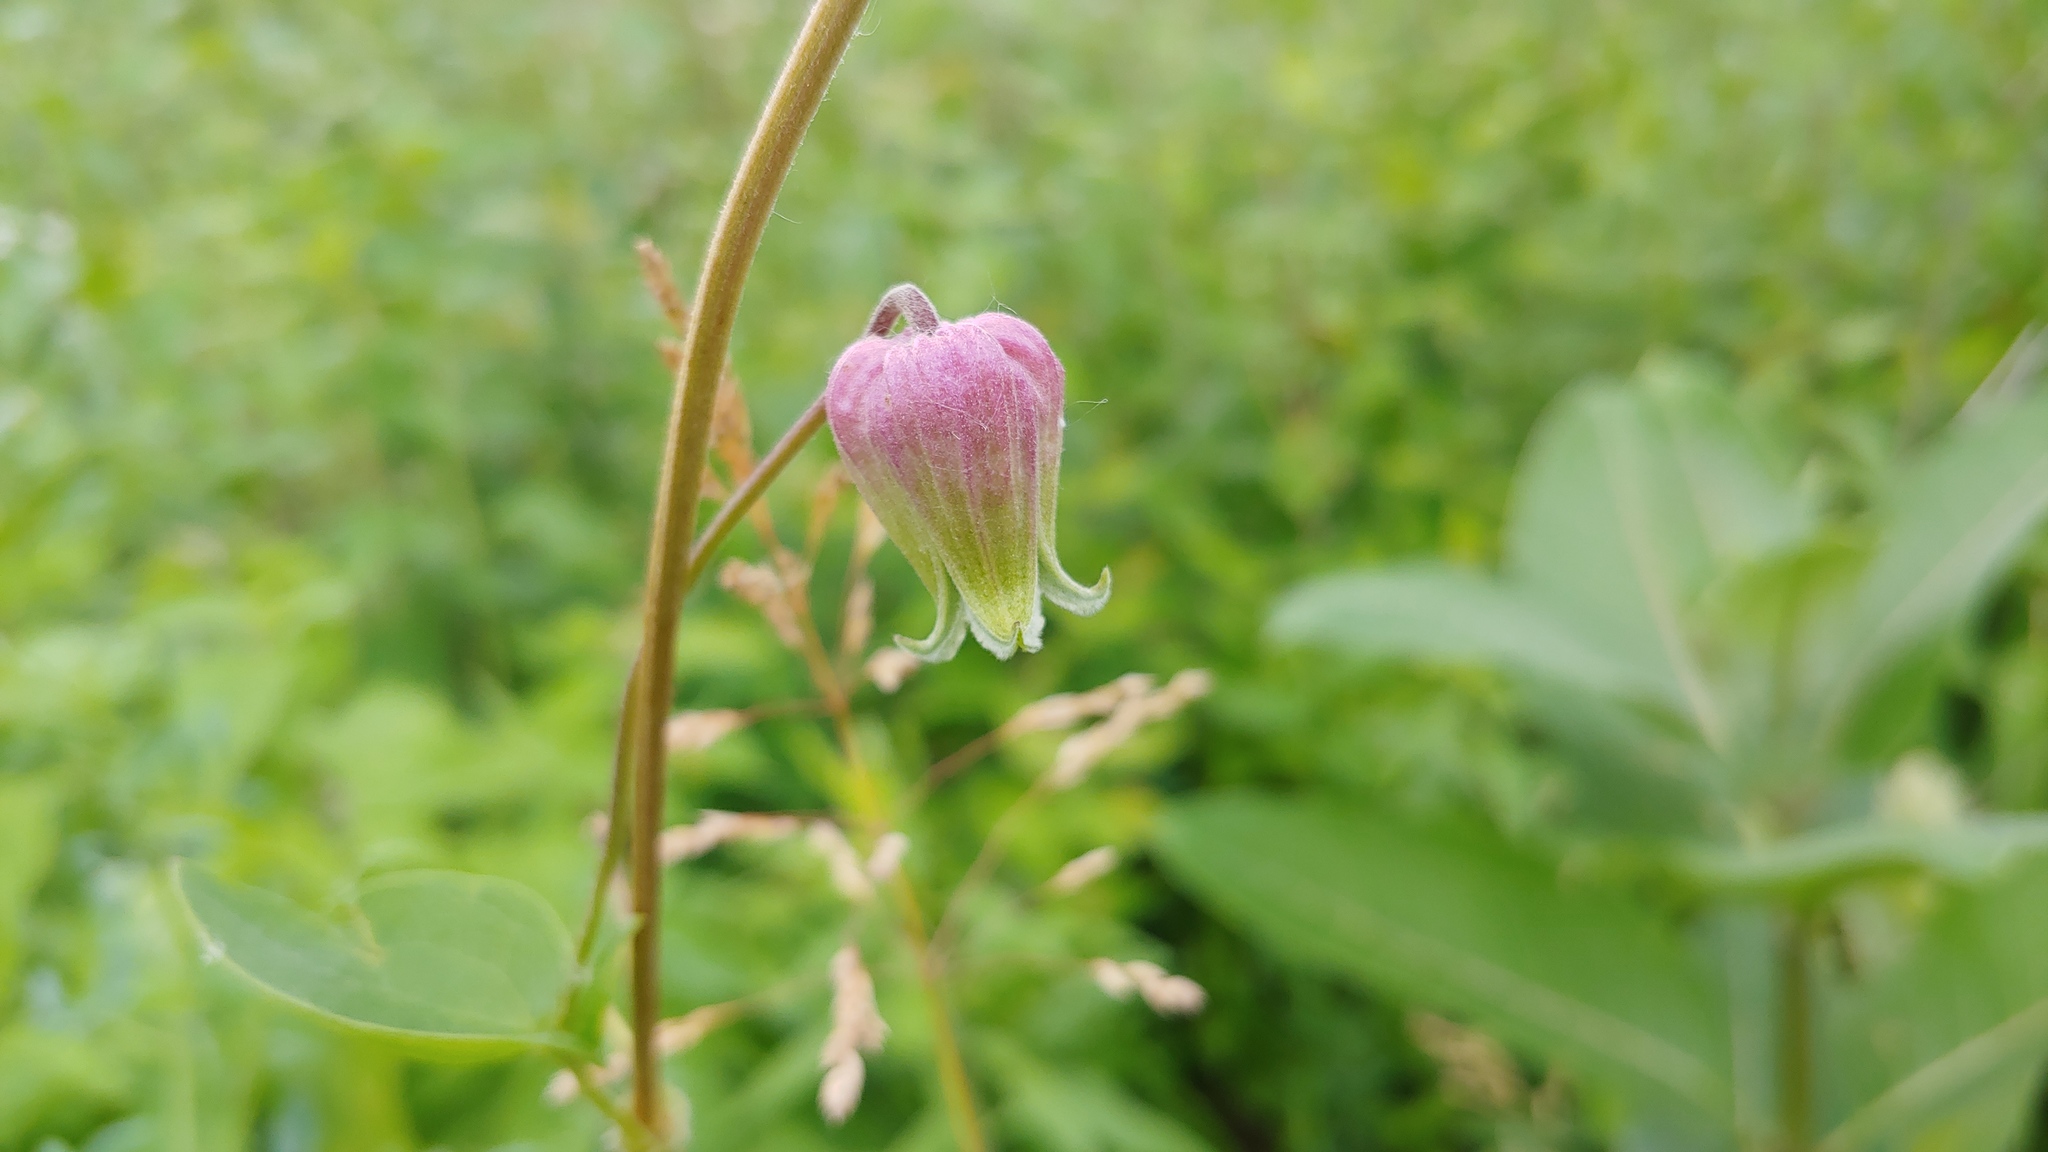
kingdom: Plantae
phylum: Tracheophyta
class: Magnoliopsida
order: Ranunculales
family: Ranunculaceae
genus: Clematis
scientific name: Clematis pitcheri
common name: Bellflower clematis
